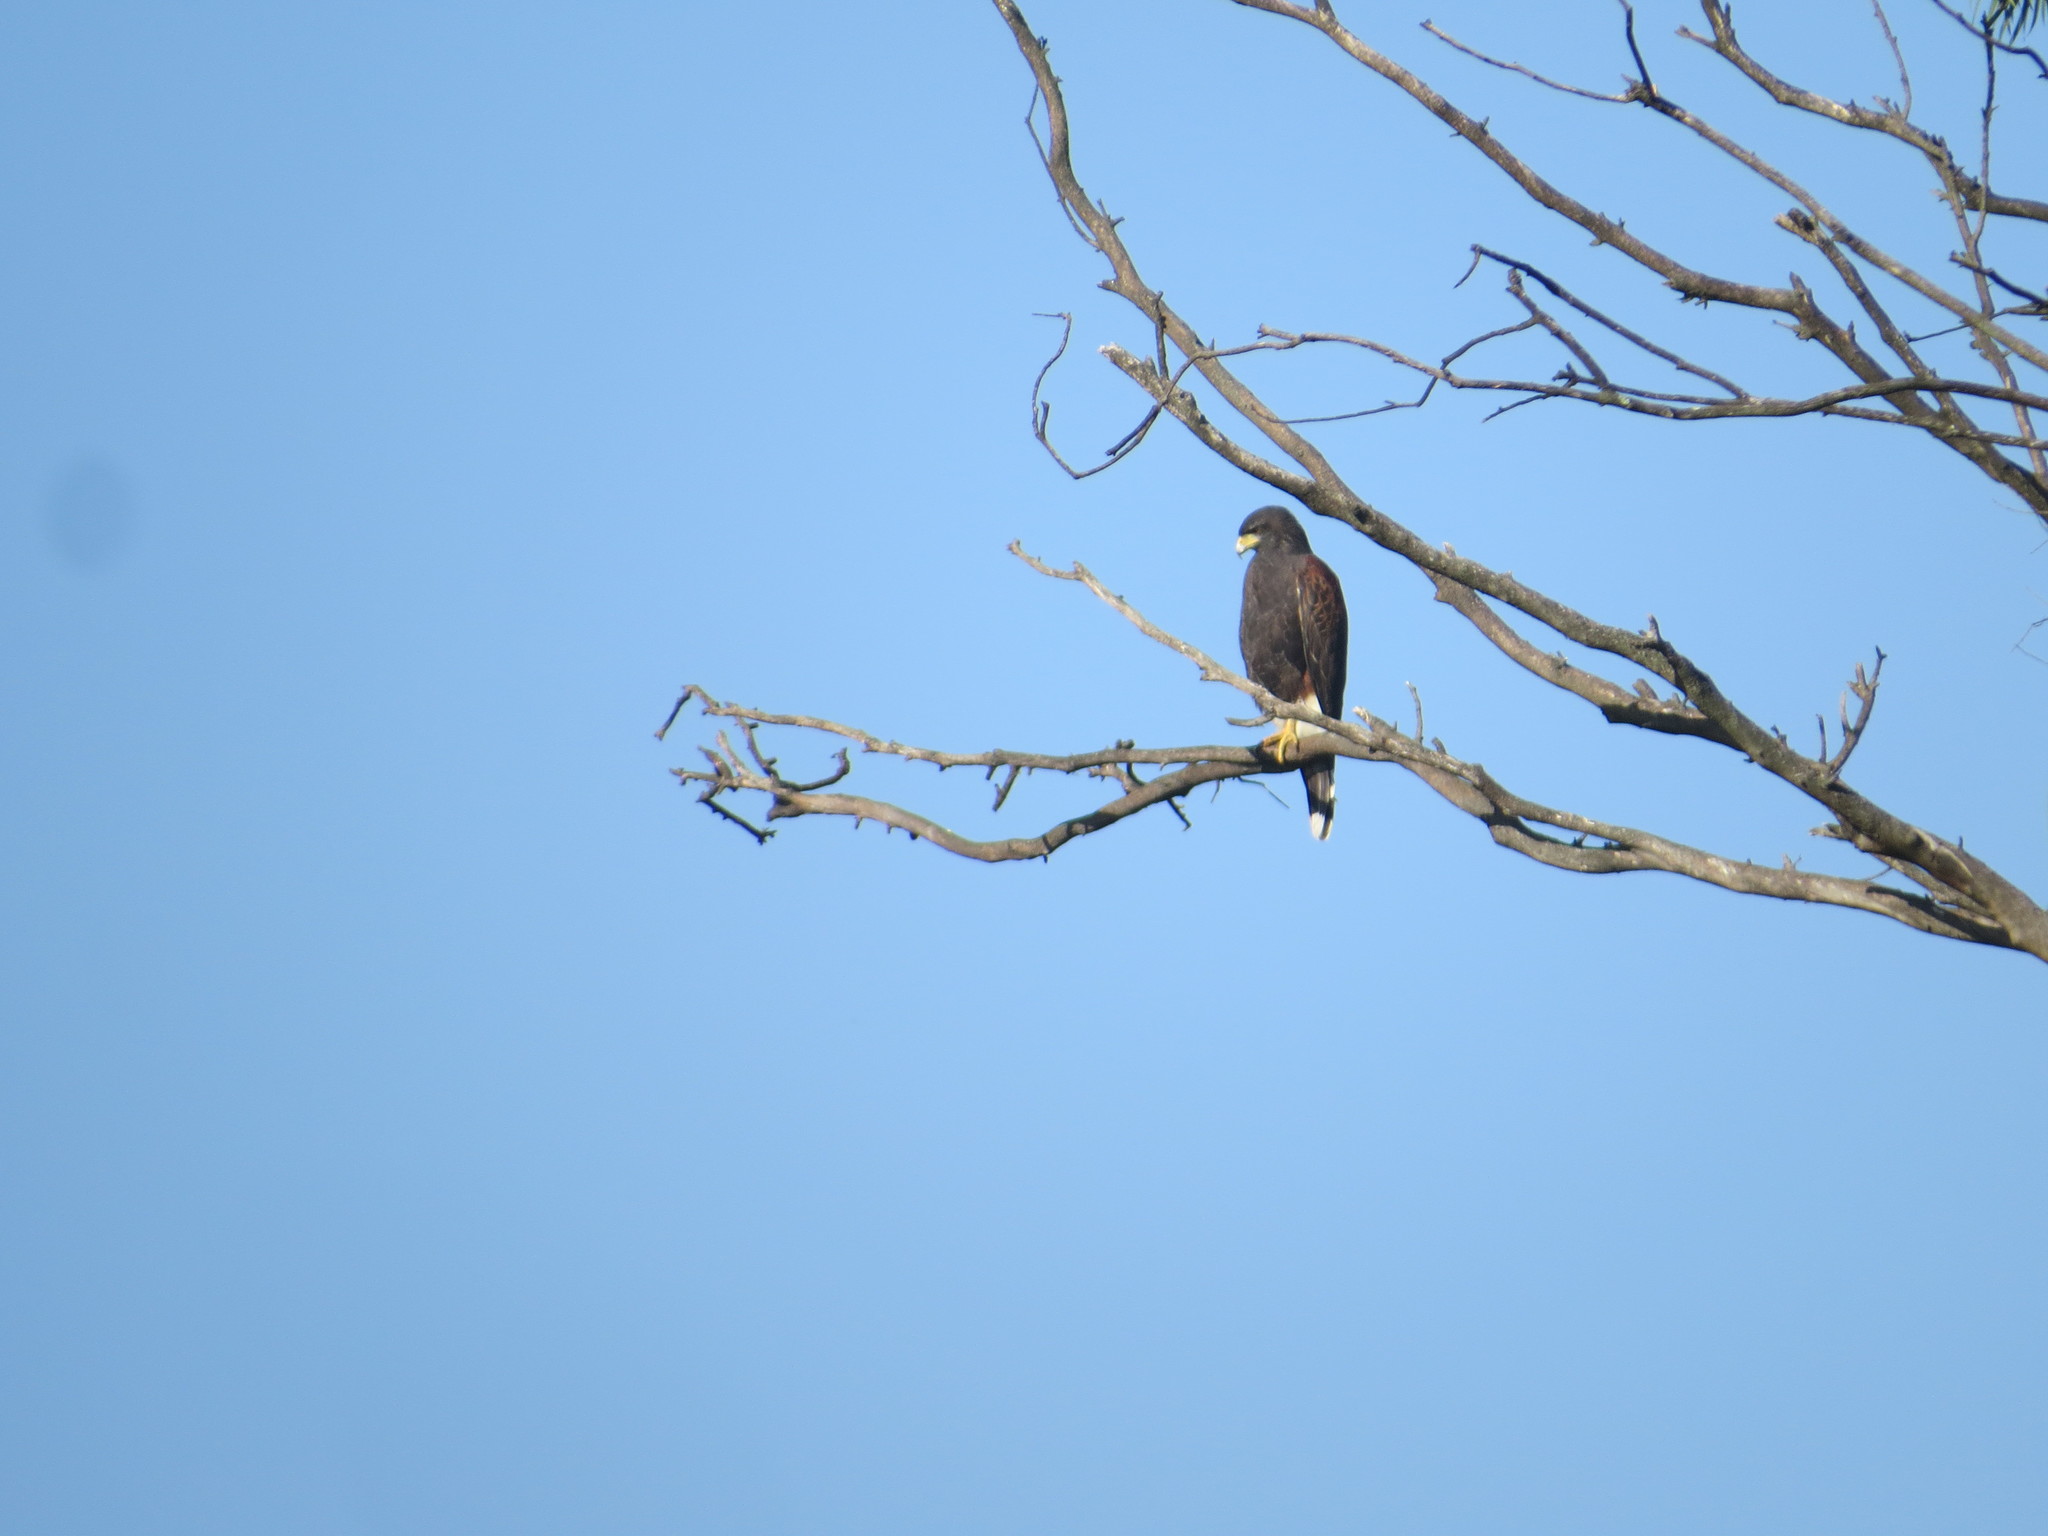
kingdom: Animalia
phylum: Chordata
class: Aves
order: Accipitriformes
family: Accipitridae
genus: Parabuteo
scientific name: Parabuteo unicinctus
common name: Harris's hawk
